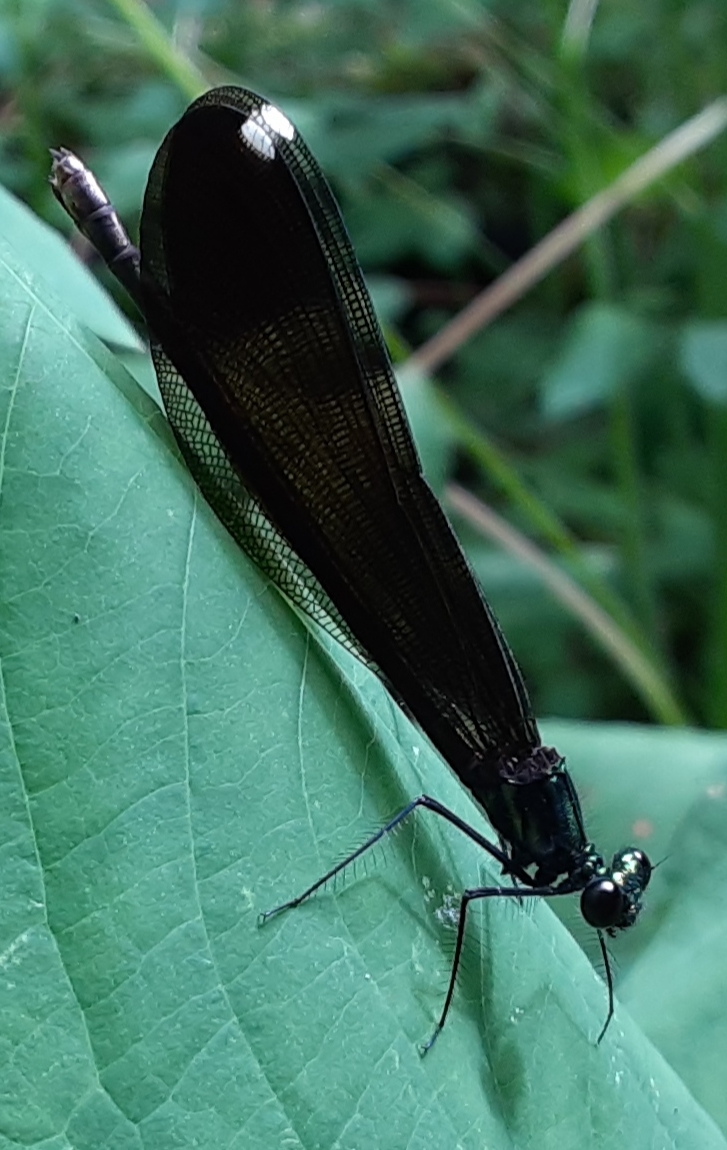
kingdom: Animalia
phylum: Arthropoda
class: Insecta
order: Odonata
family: Calopterygidae
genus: Calopteryx
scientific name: Calopteryx maculata
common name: Ebony jewelwing
